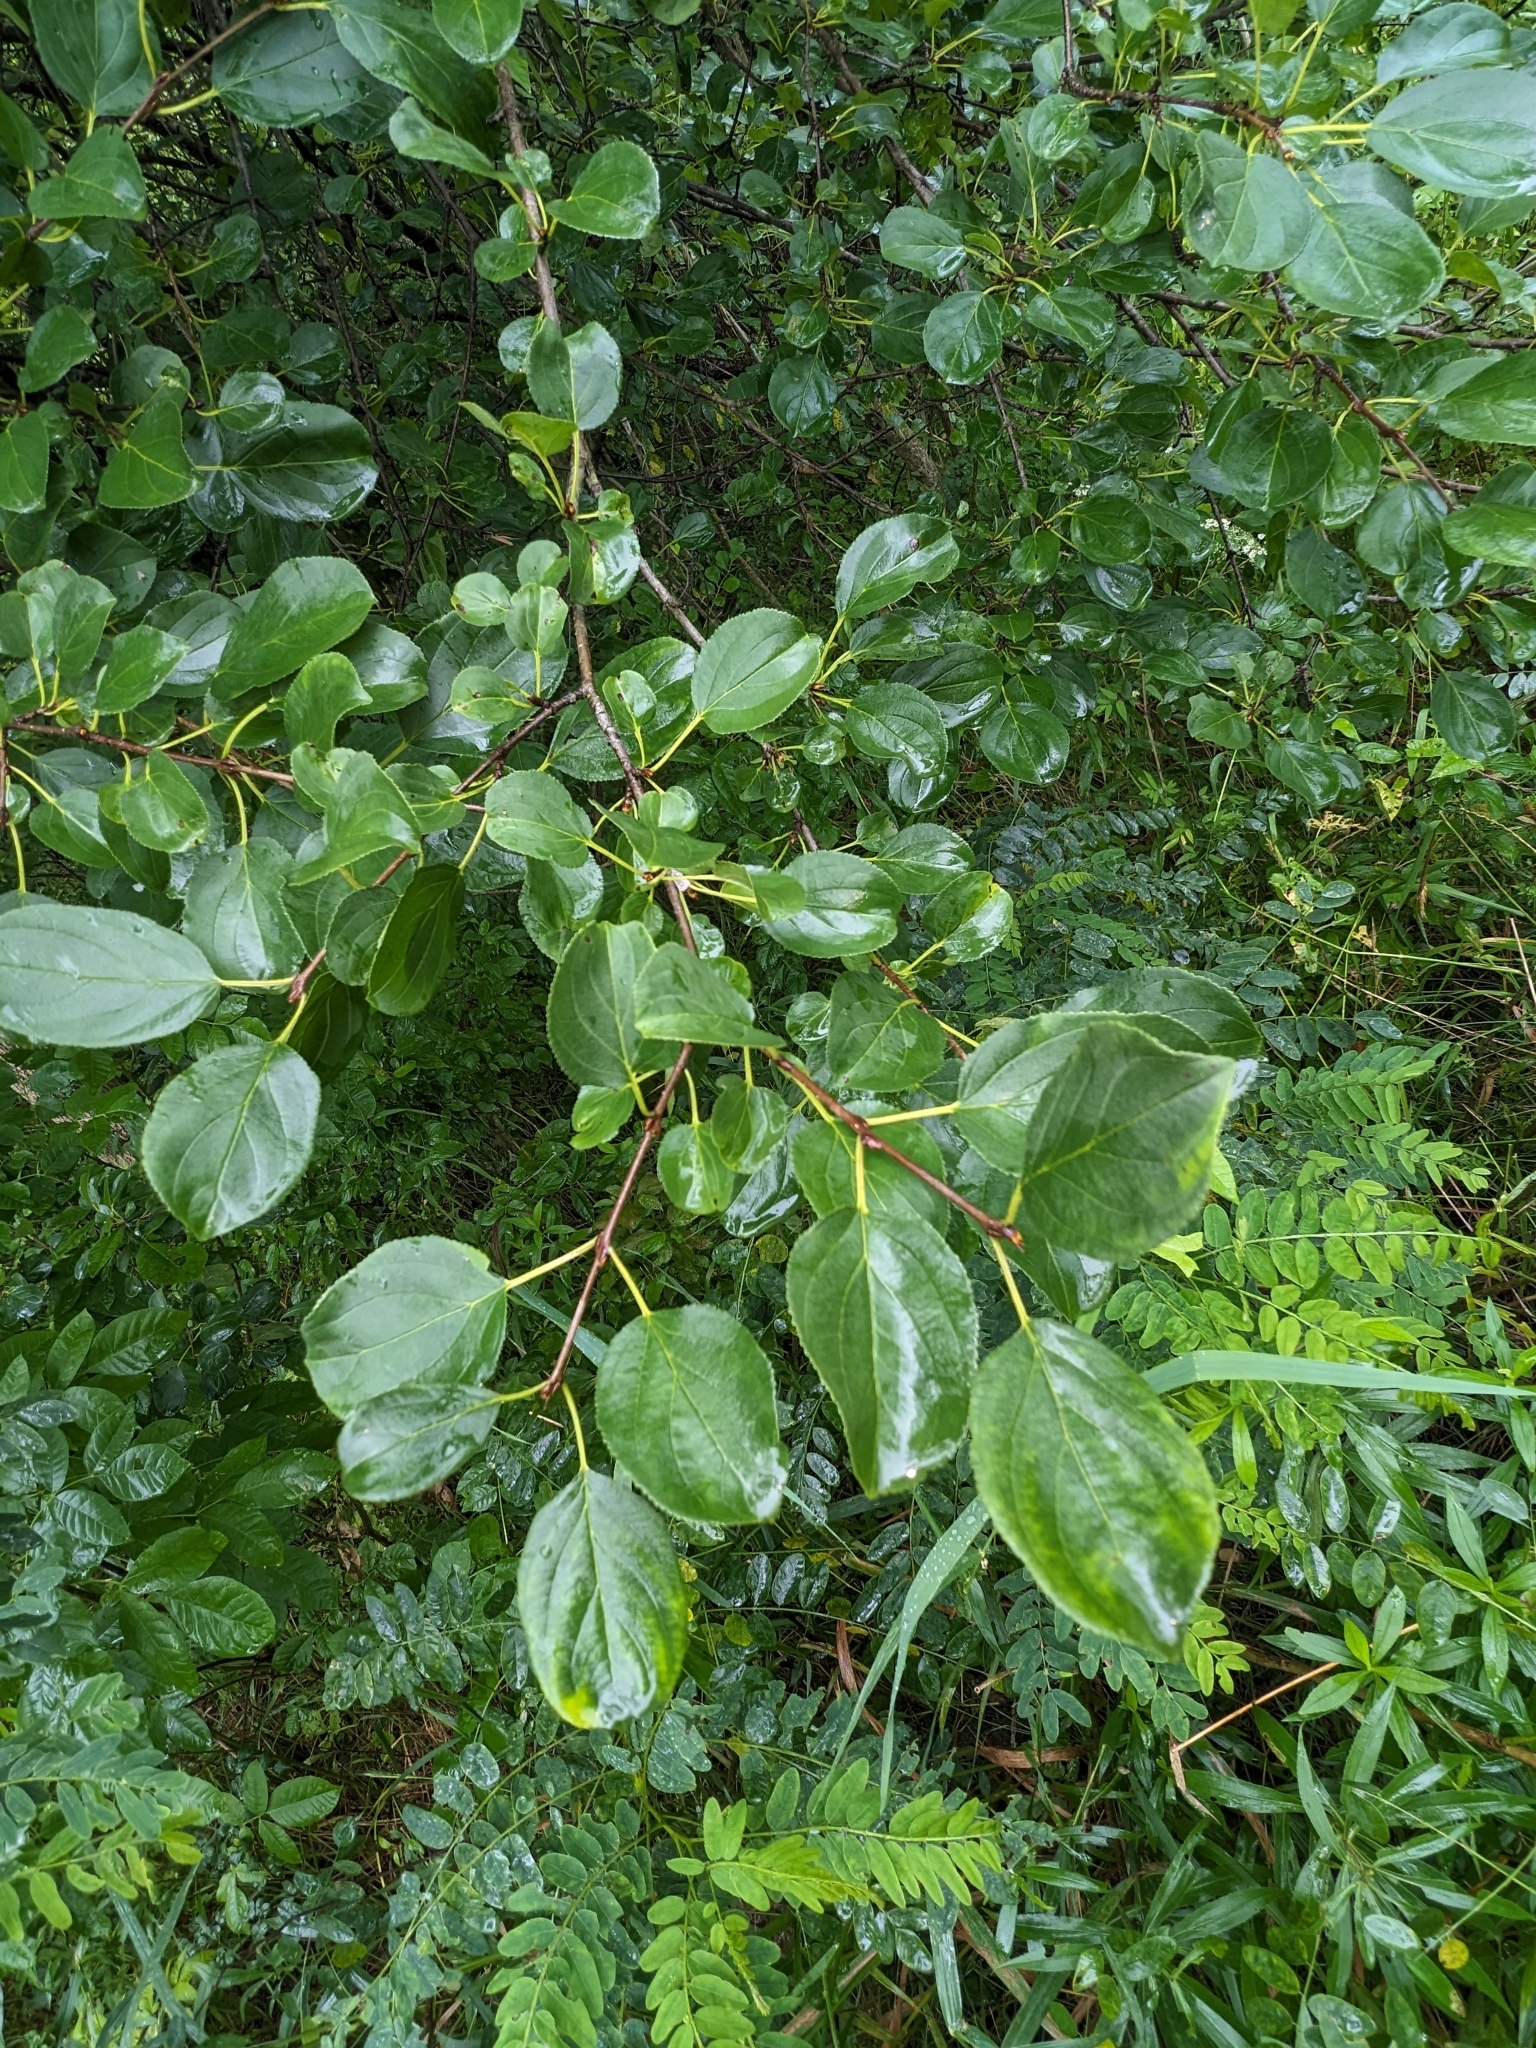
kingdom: Plantae
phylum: Tracheophyta
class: Magnoliopsida
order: Rosales
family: Rhamnaceae
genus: Rhamnus
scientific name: Rhamnus cathartica
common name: Common buckthorn
